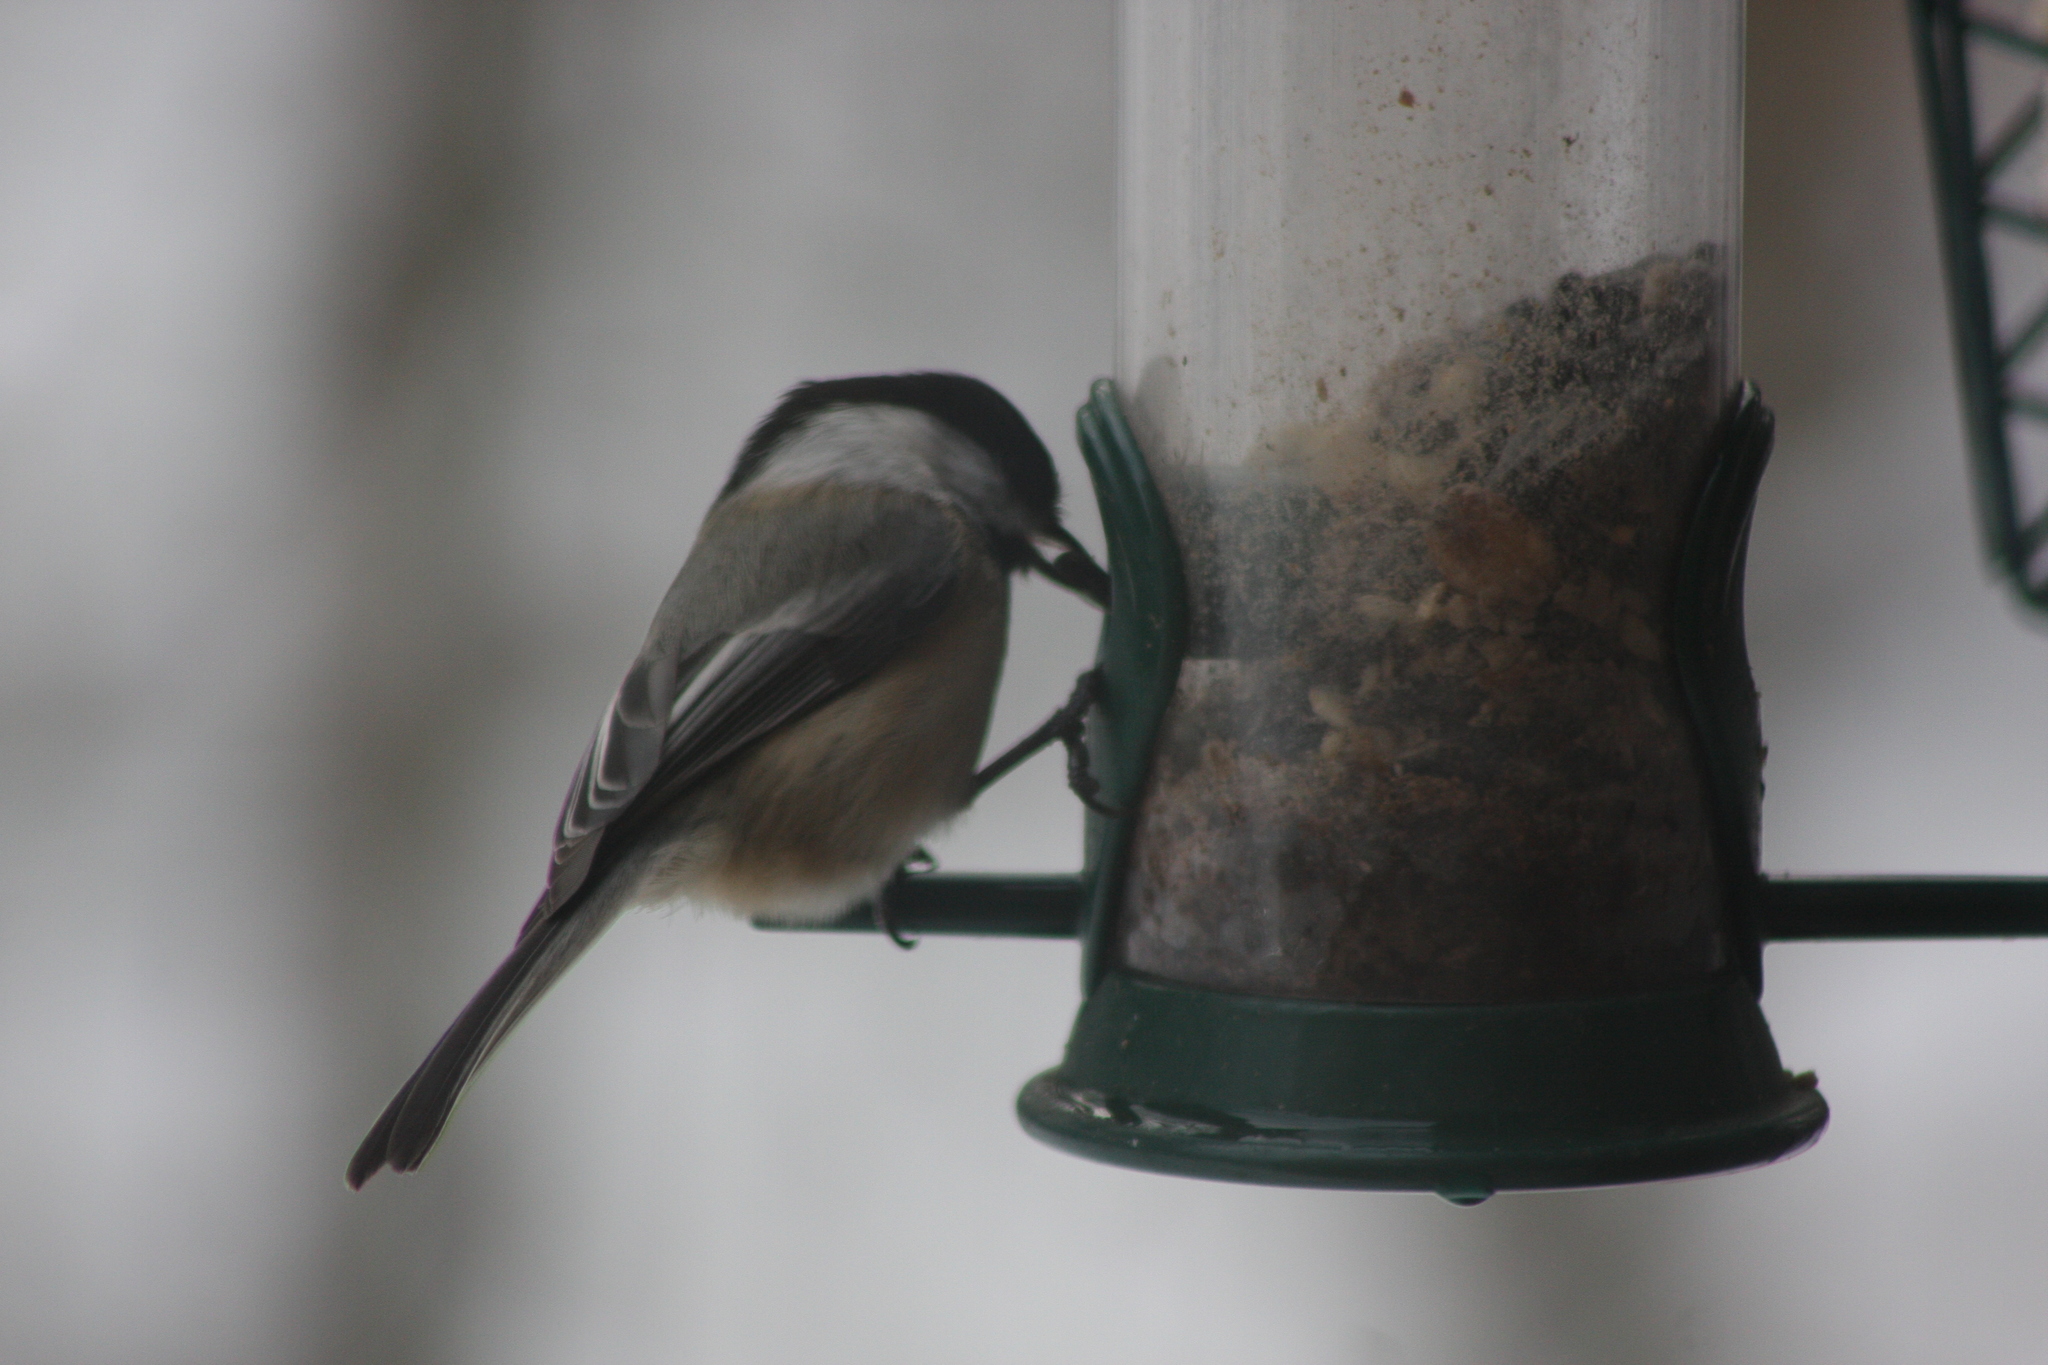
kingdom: Animalia
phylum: Chordata
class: Aves
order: Passeriformes
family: Paridae
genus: Poecile
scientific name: Poecile atricapillus
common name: Black-capped chickadee
